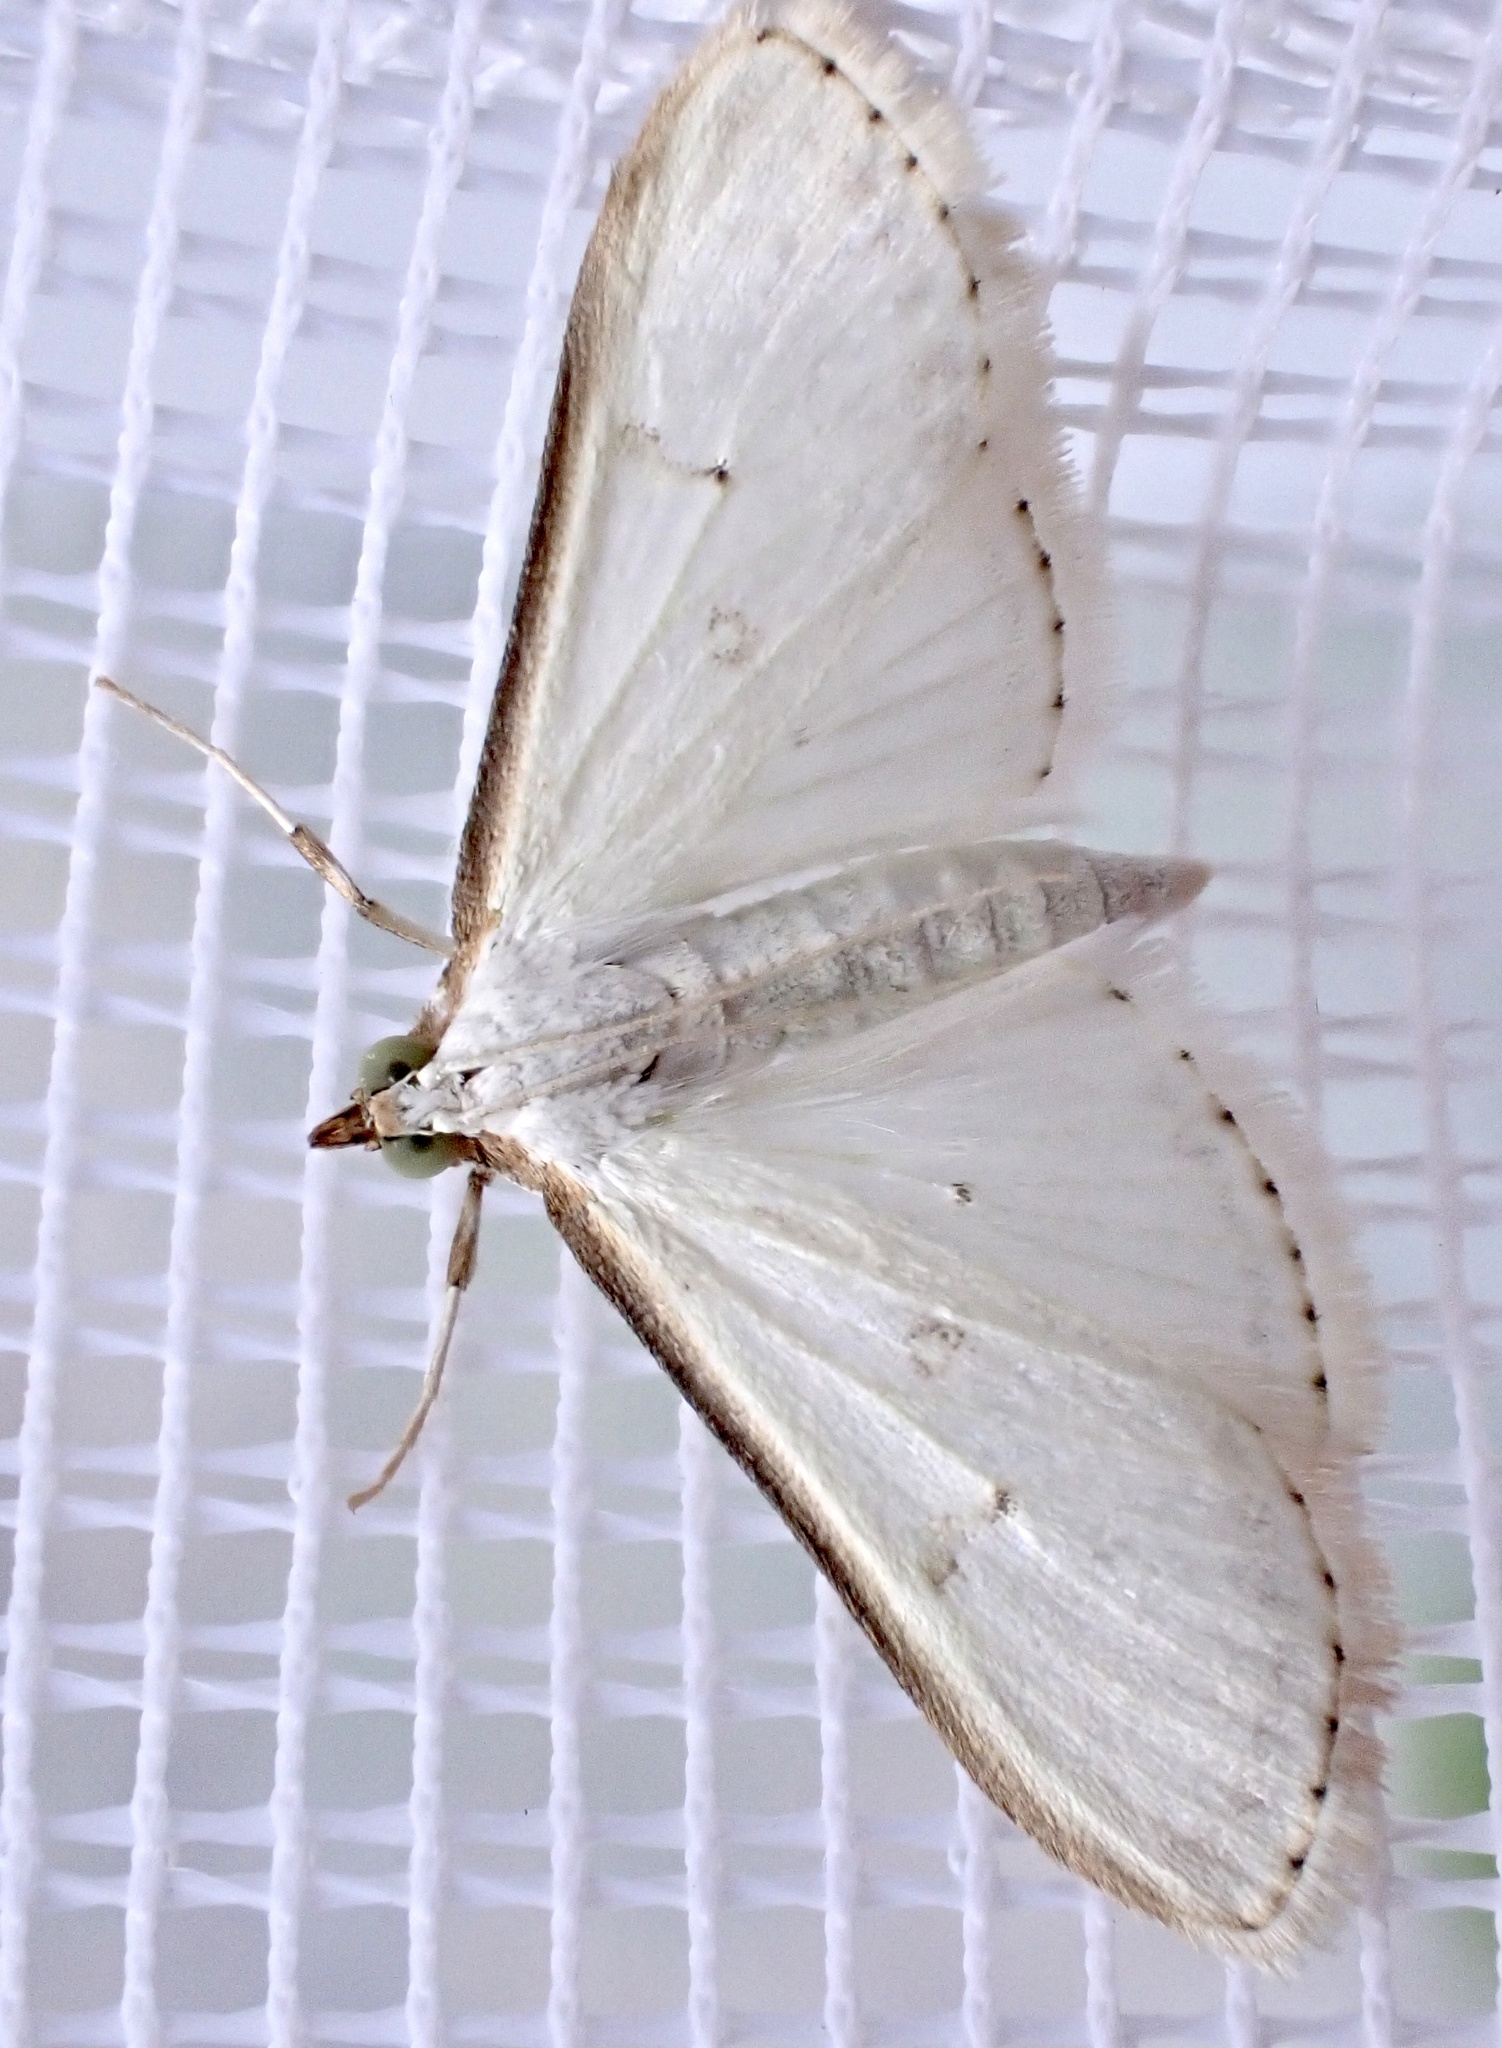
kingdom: Animalia
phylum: Arthropoda
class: Insecta
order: Lepidoptera
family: Crambidae
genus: Palpita
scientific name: Palpita vitrealis
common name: Olive-tree pearl
